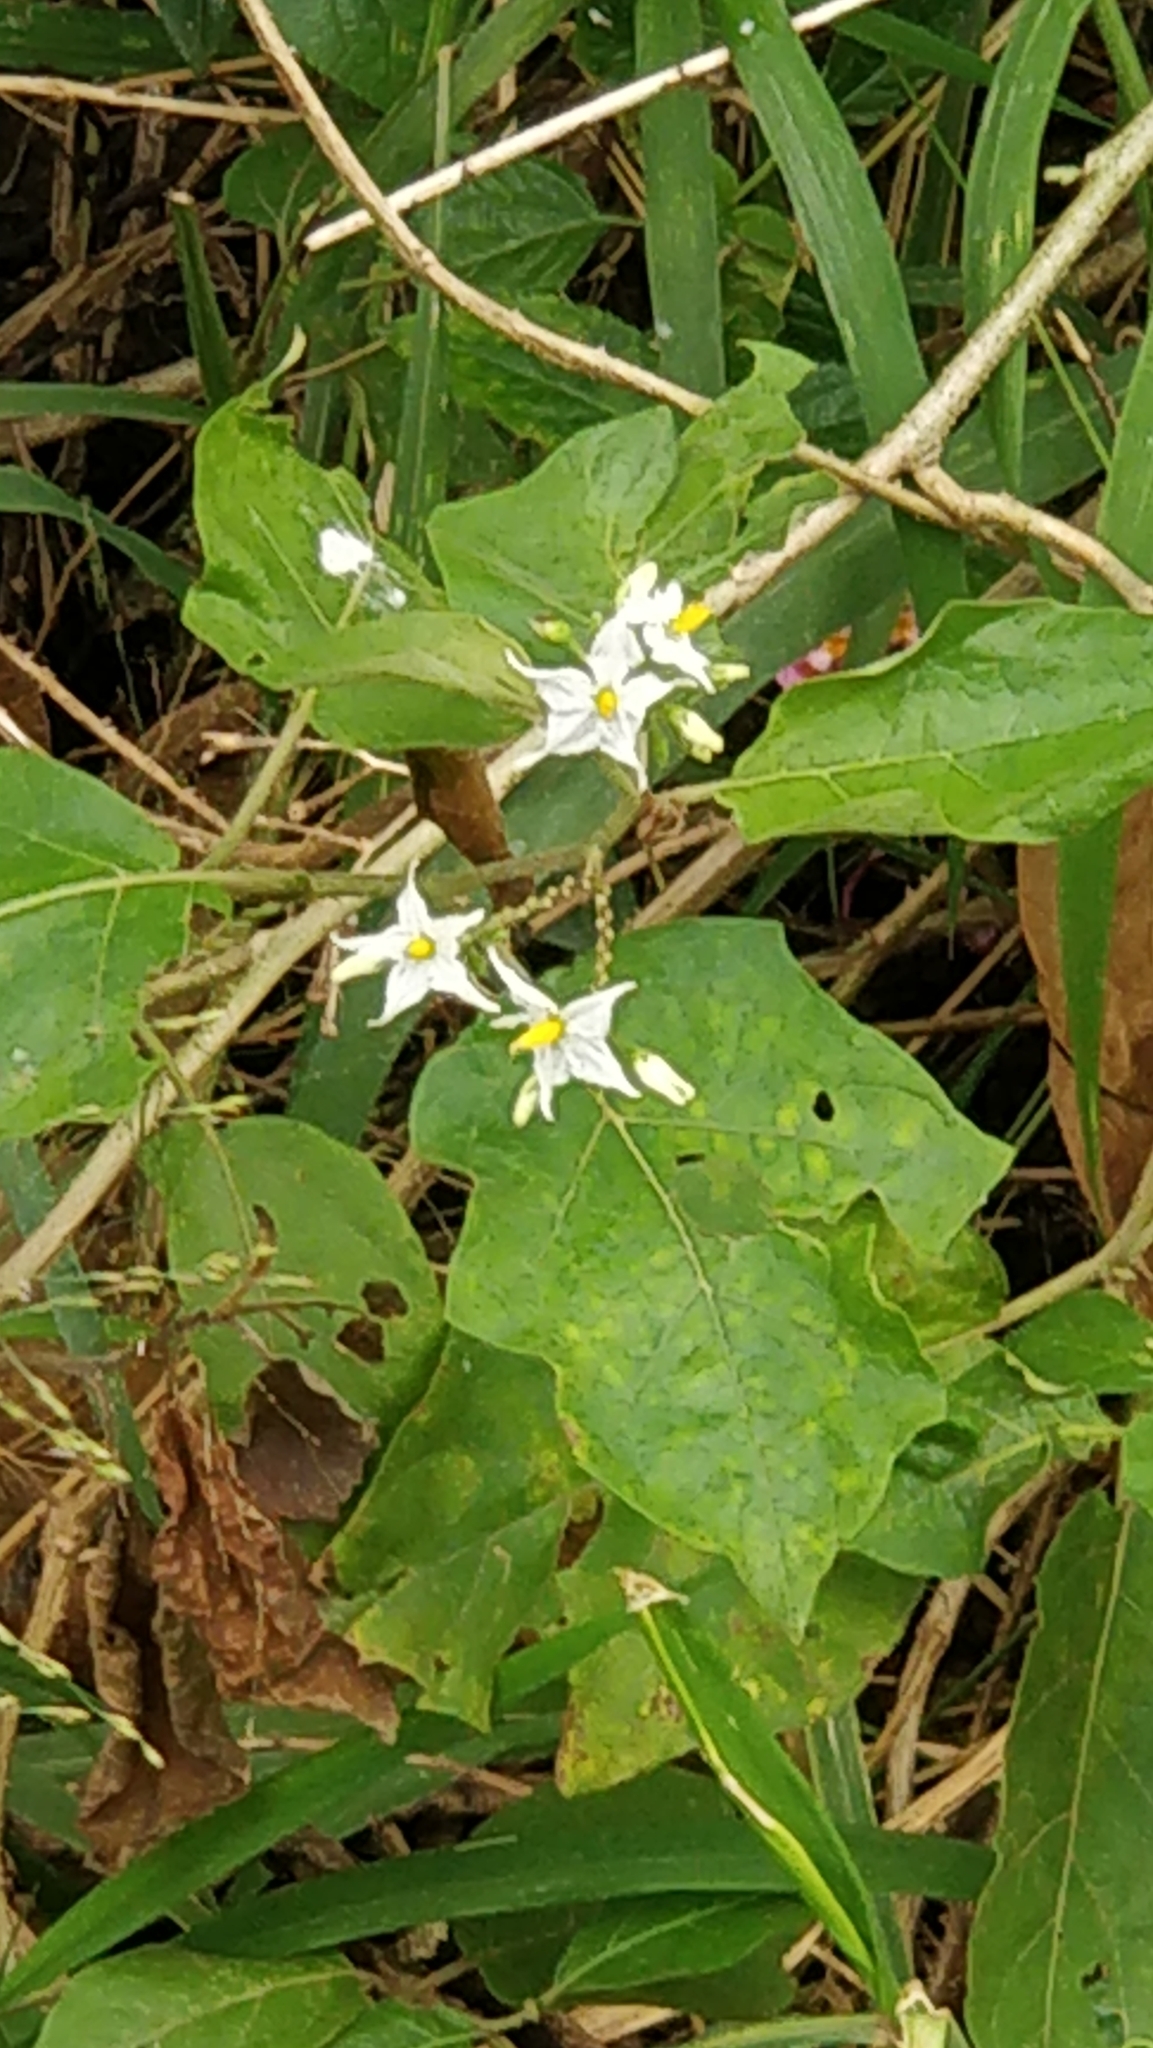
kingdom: Plantae
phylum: Tracheophyta
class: Magnoliopsida
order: Solanales
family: Solanaceae
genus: Solanum
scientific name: Solanum torvum
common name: Turkey berry
